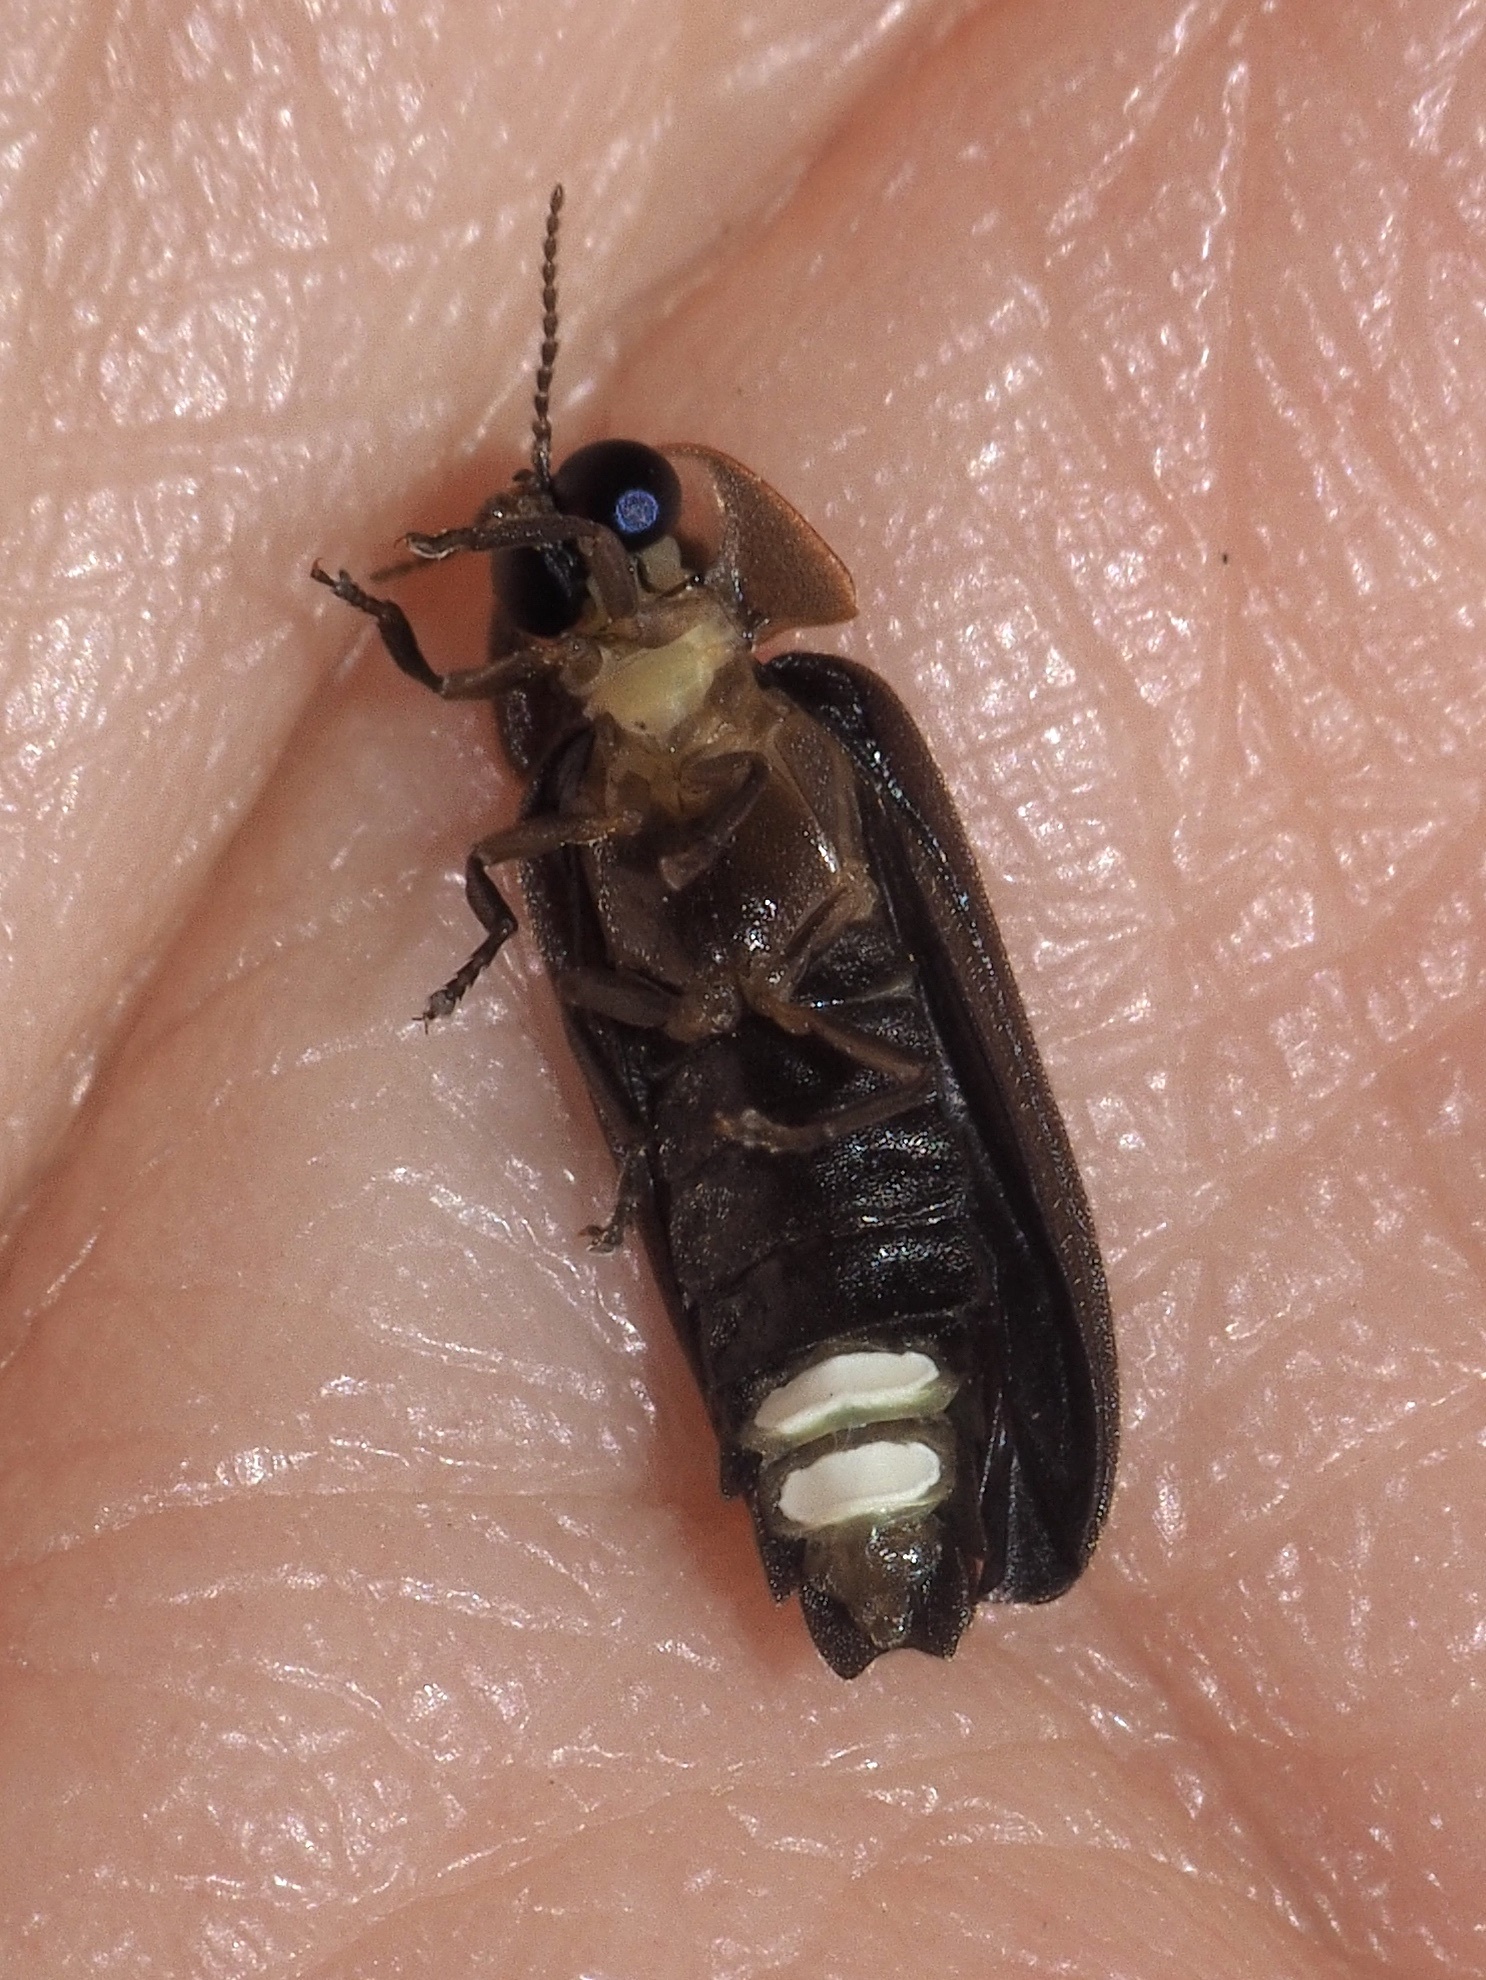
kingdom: Animalia
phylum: Arthropoda
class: Insecta
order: Coleoptera
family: Lampyridae
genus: Lamprohiza
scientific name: Lamprohiza splendidula
